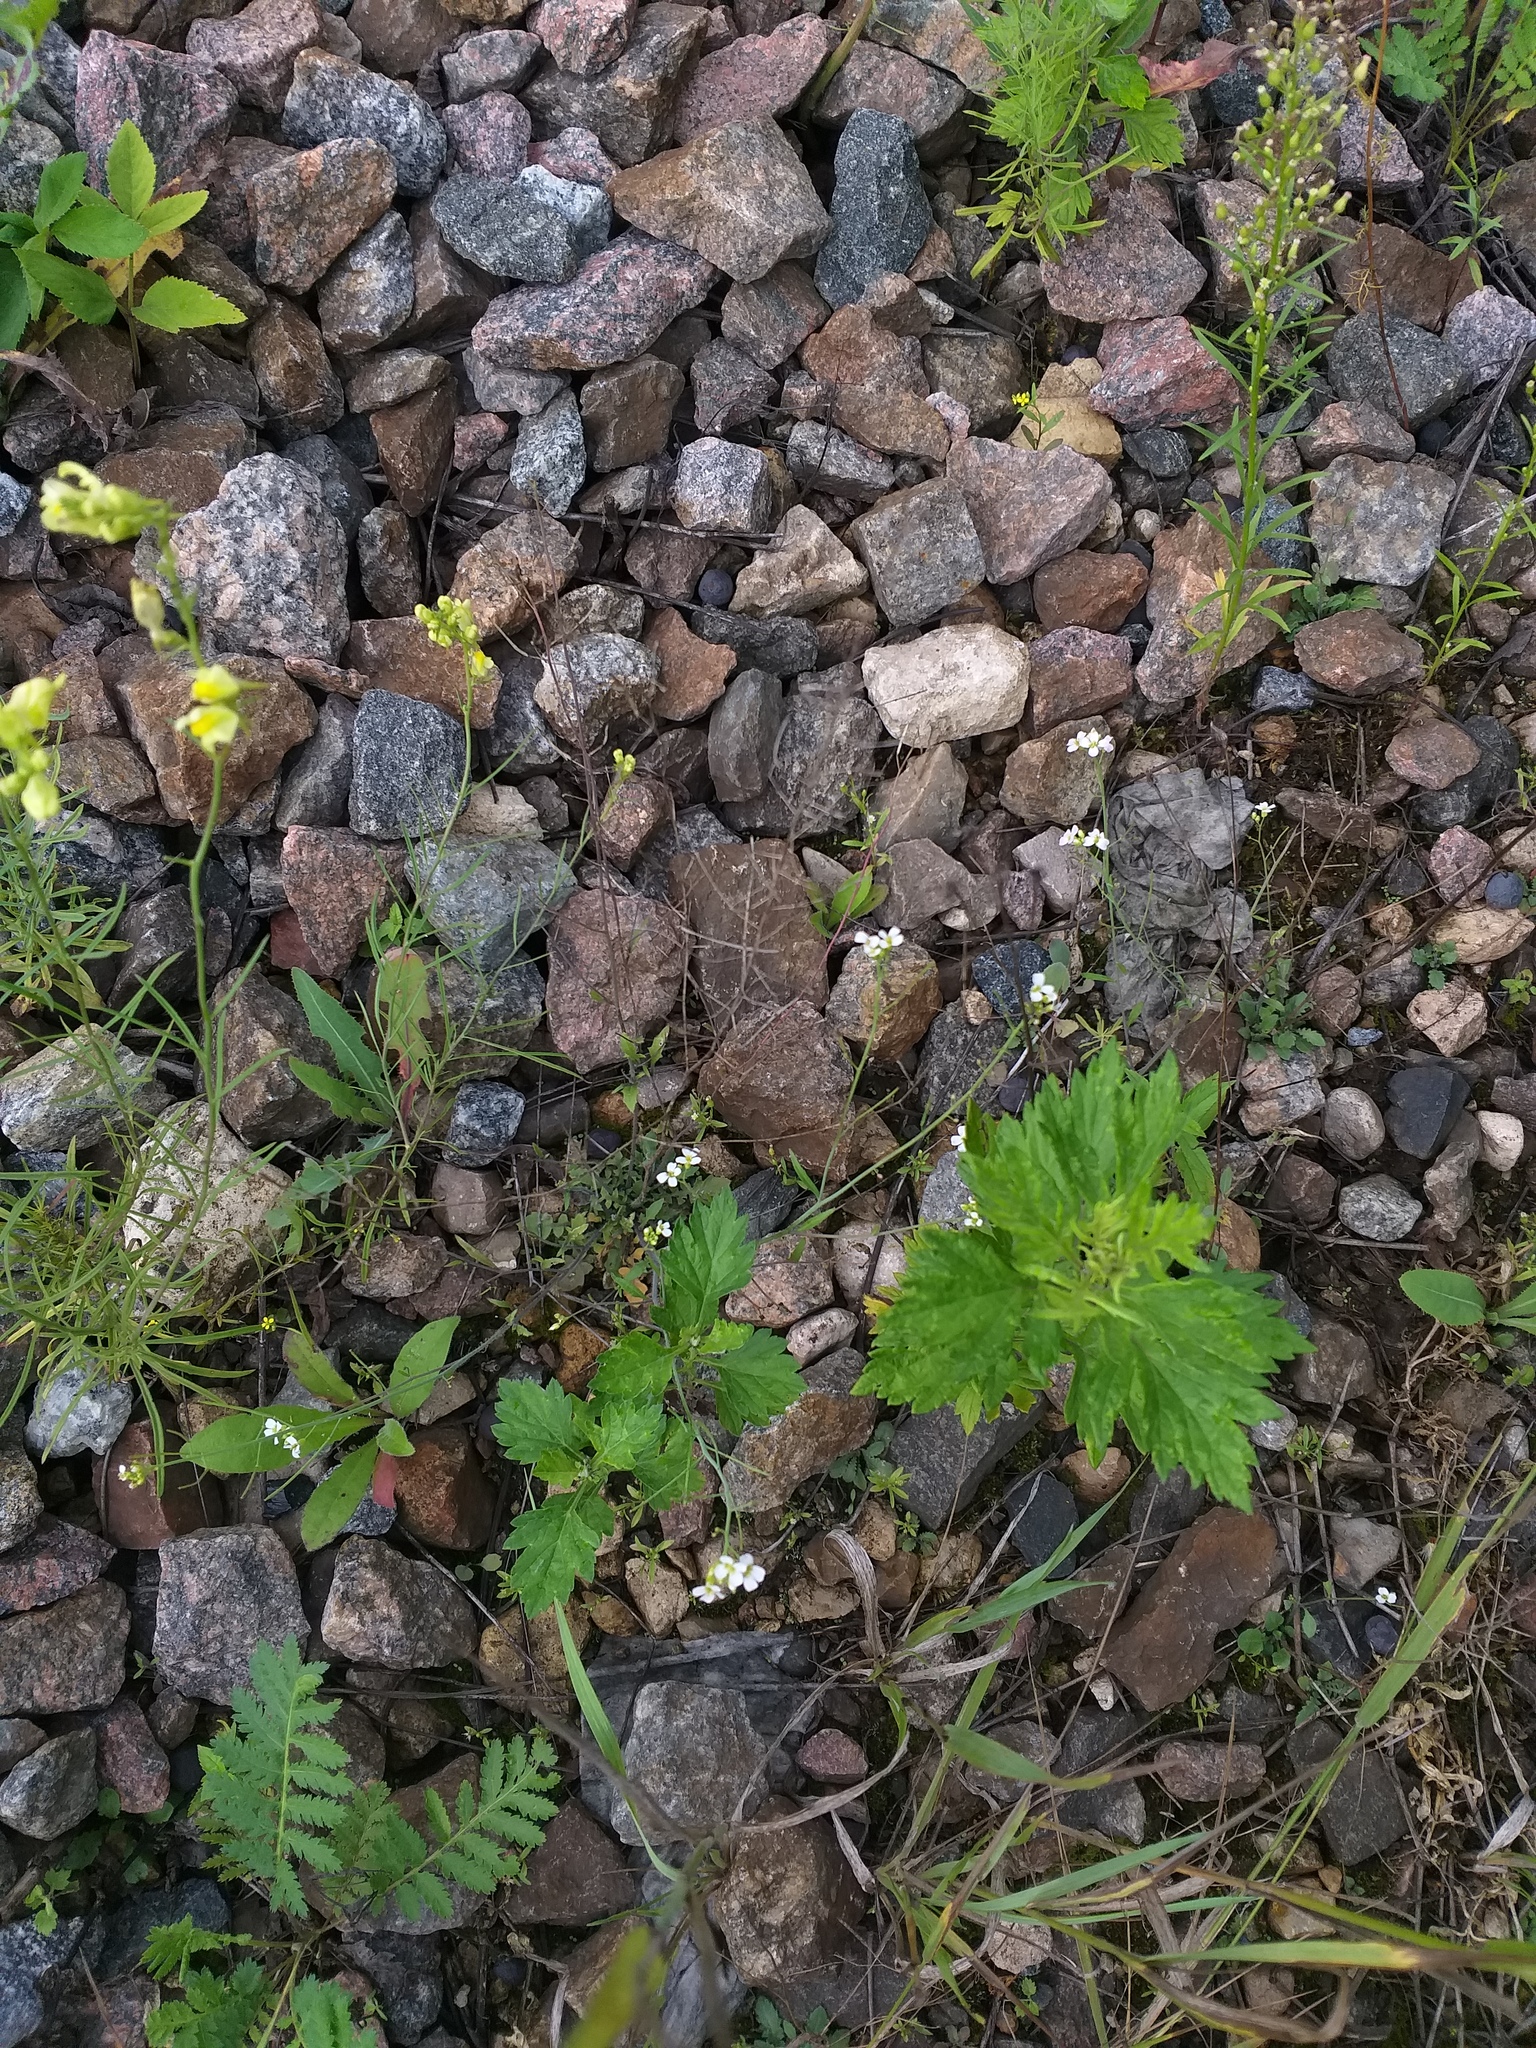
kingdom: Plantae
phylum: Tracheophyta
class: Magnoliopsida
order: Brassicales
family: Brassicaceae
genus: Arabidopsis
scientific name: Arabidopsis arenosa
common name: Sand rock-cress
